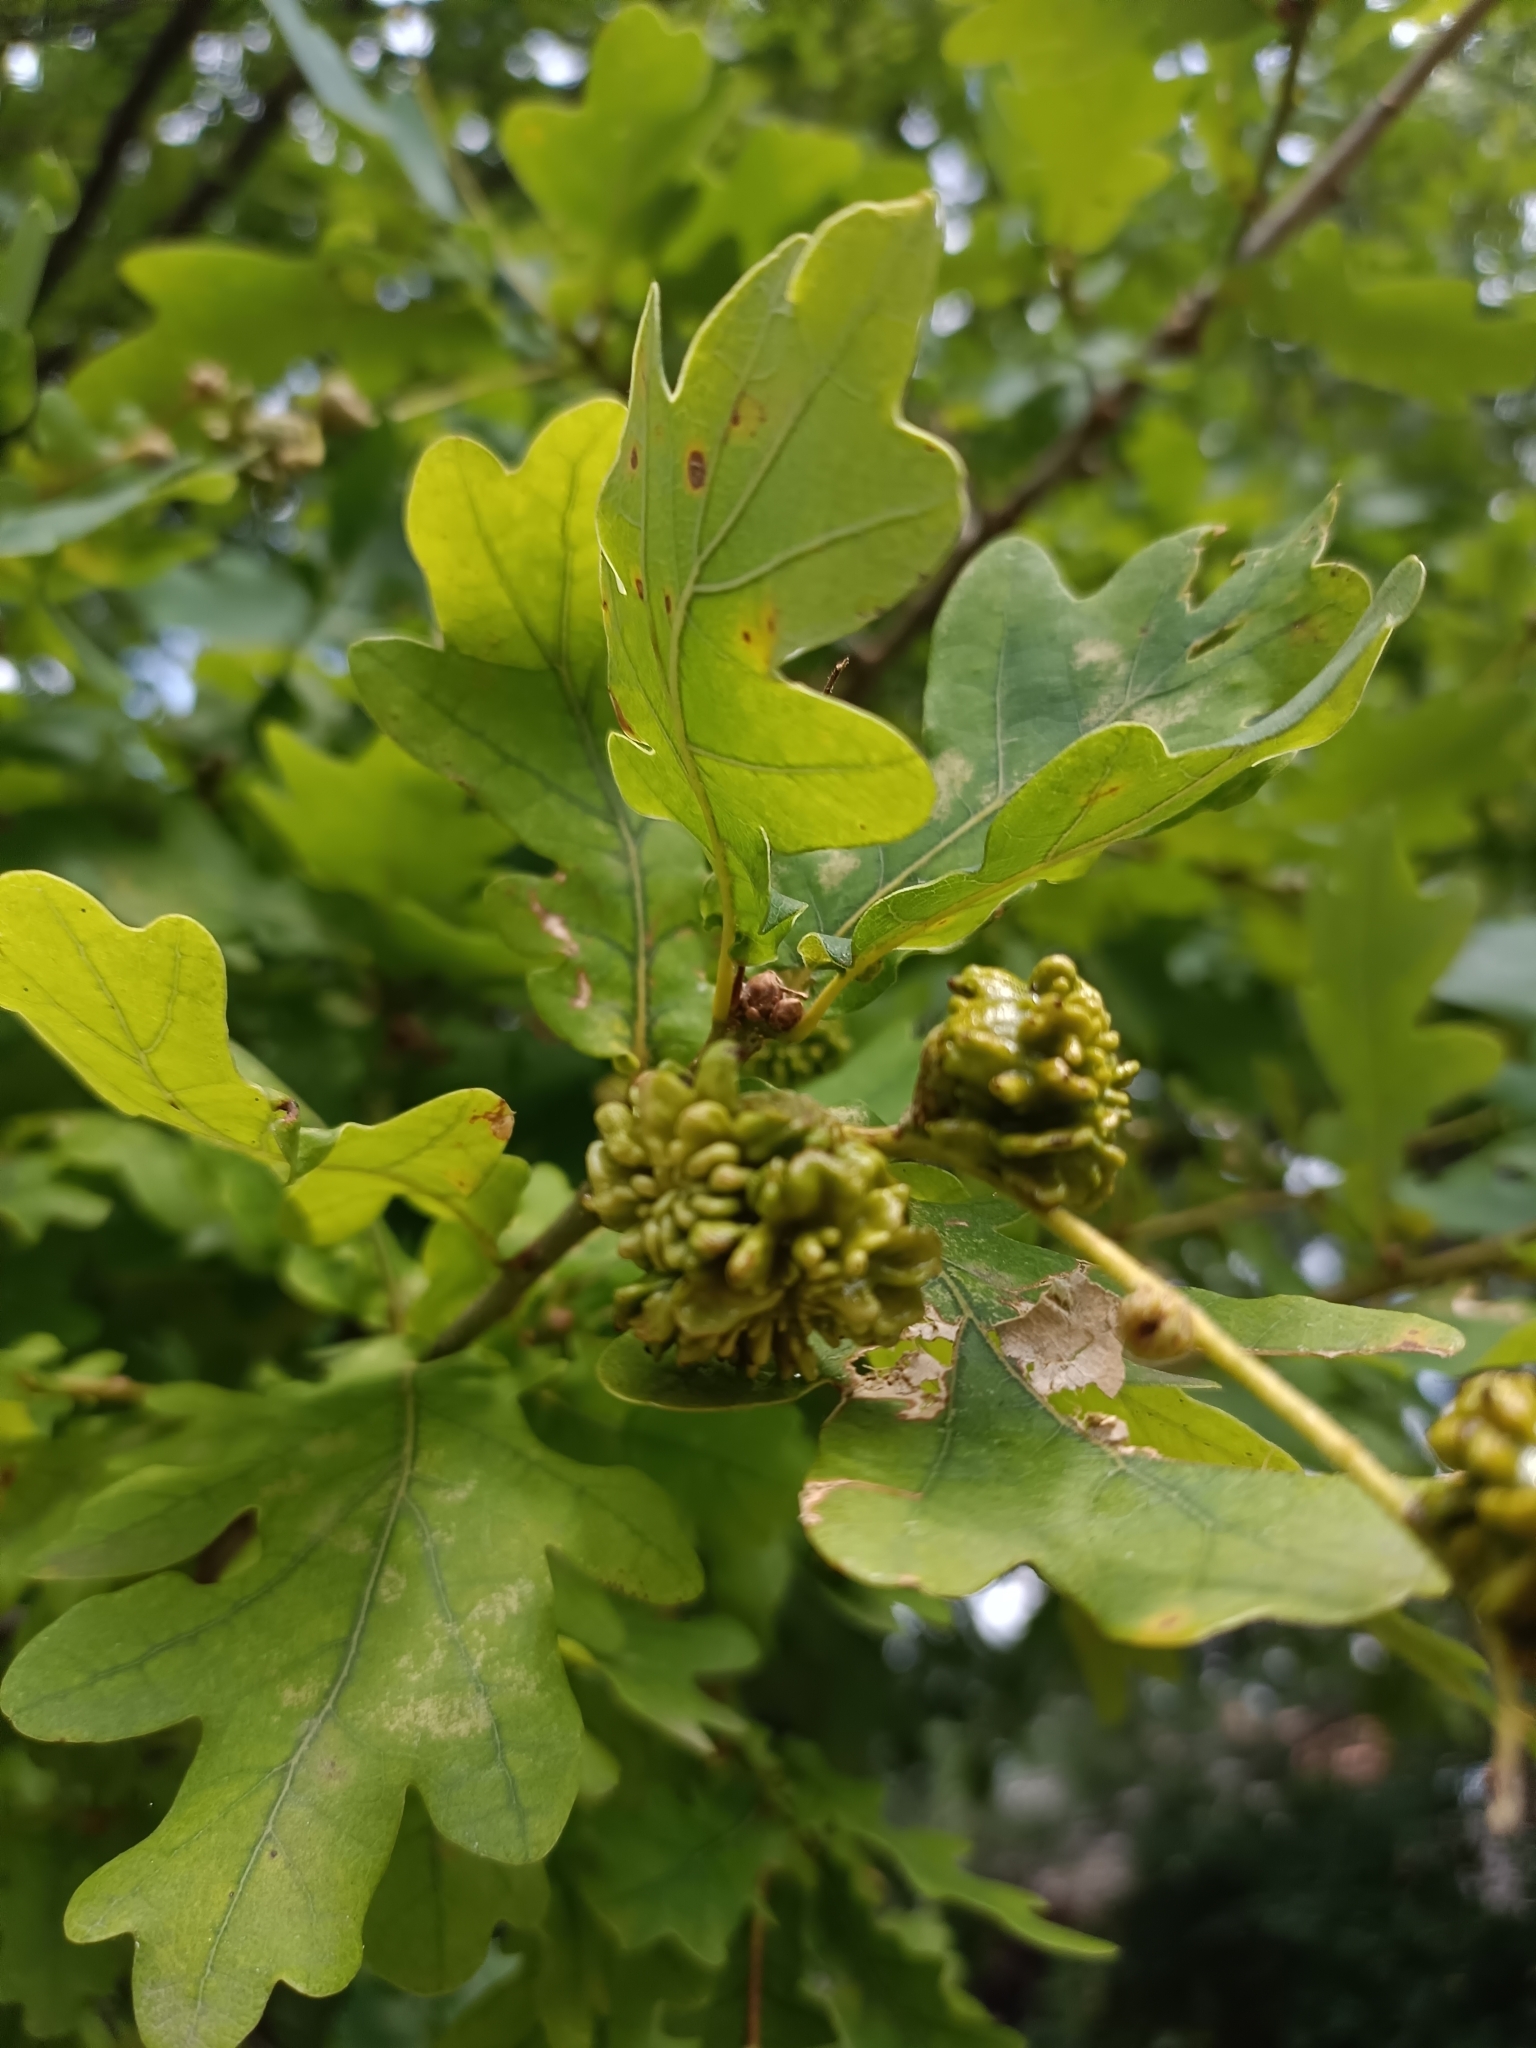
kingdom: Animalia
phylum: Arthropoda
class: Insecta
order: Hymenoptera
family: Cynipidae
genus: Andricus
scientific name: Andricus quercuscalicis
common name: Knopper gall
